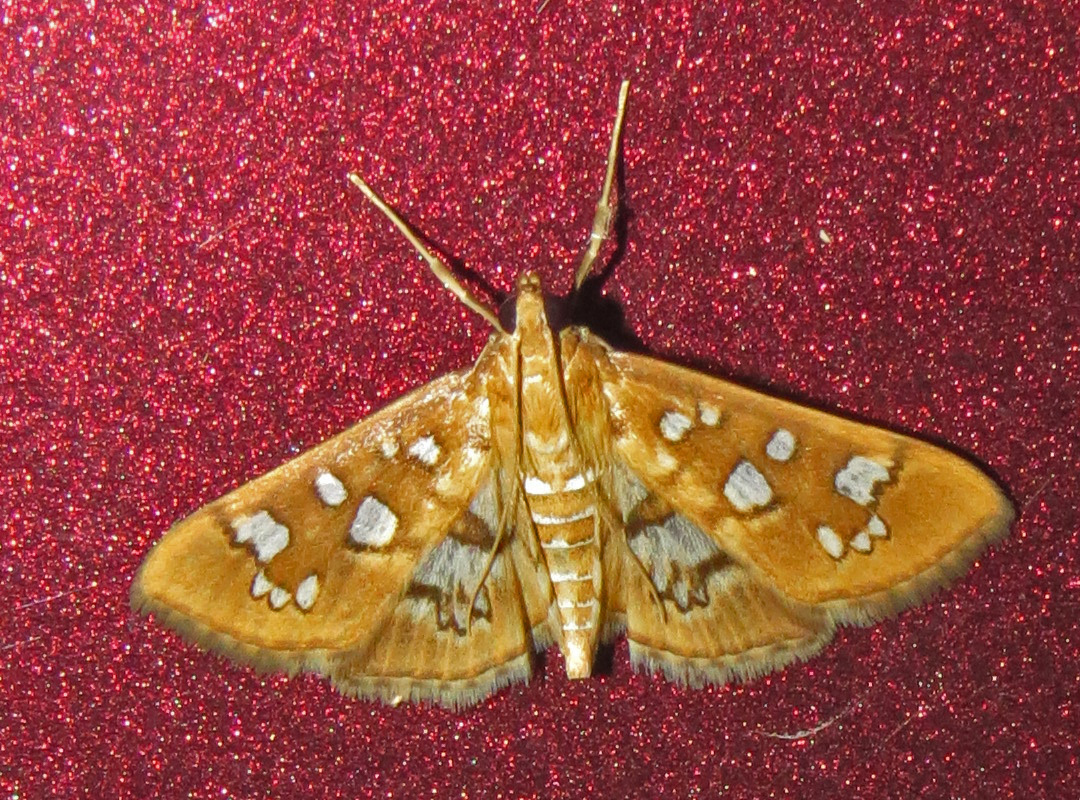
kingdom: Animalia
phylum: Arthropoda
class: Insecta
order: Lepidoptera
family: Crambidae
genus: Samea
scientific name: Samea baccatalis
